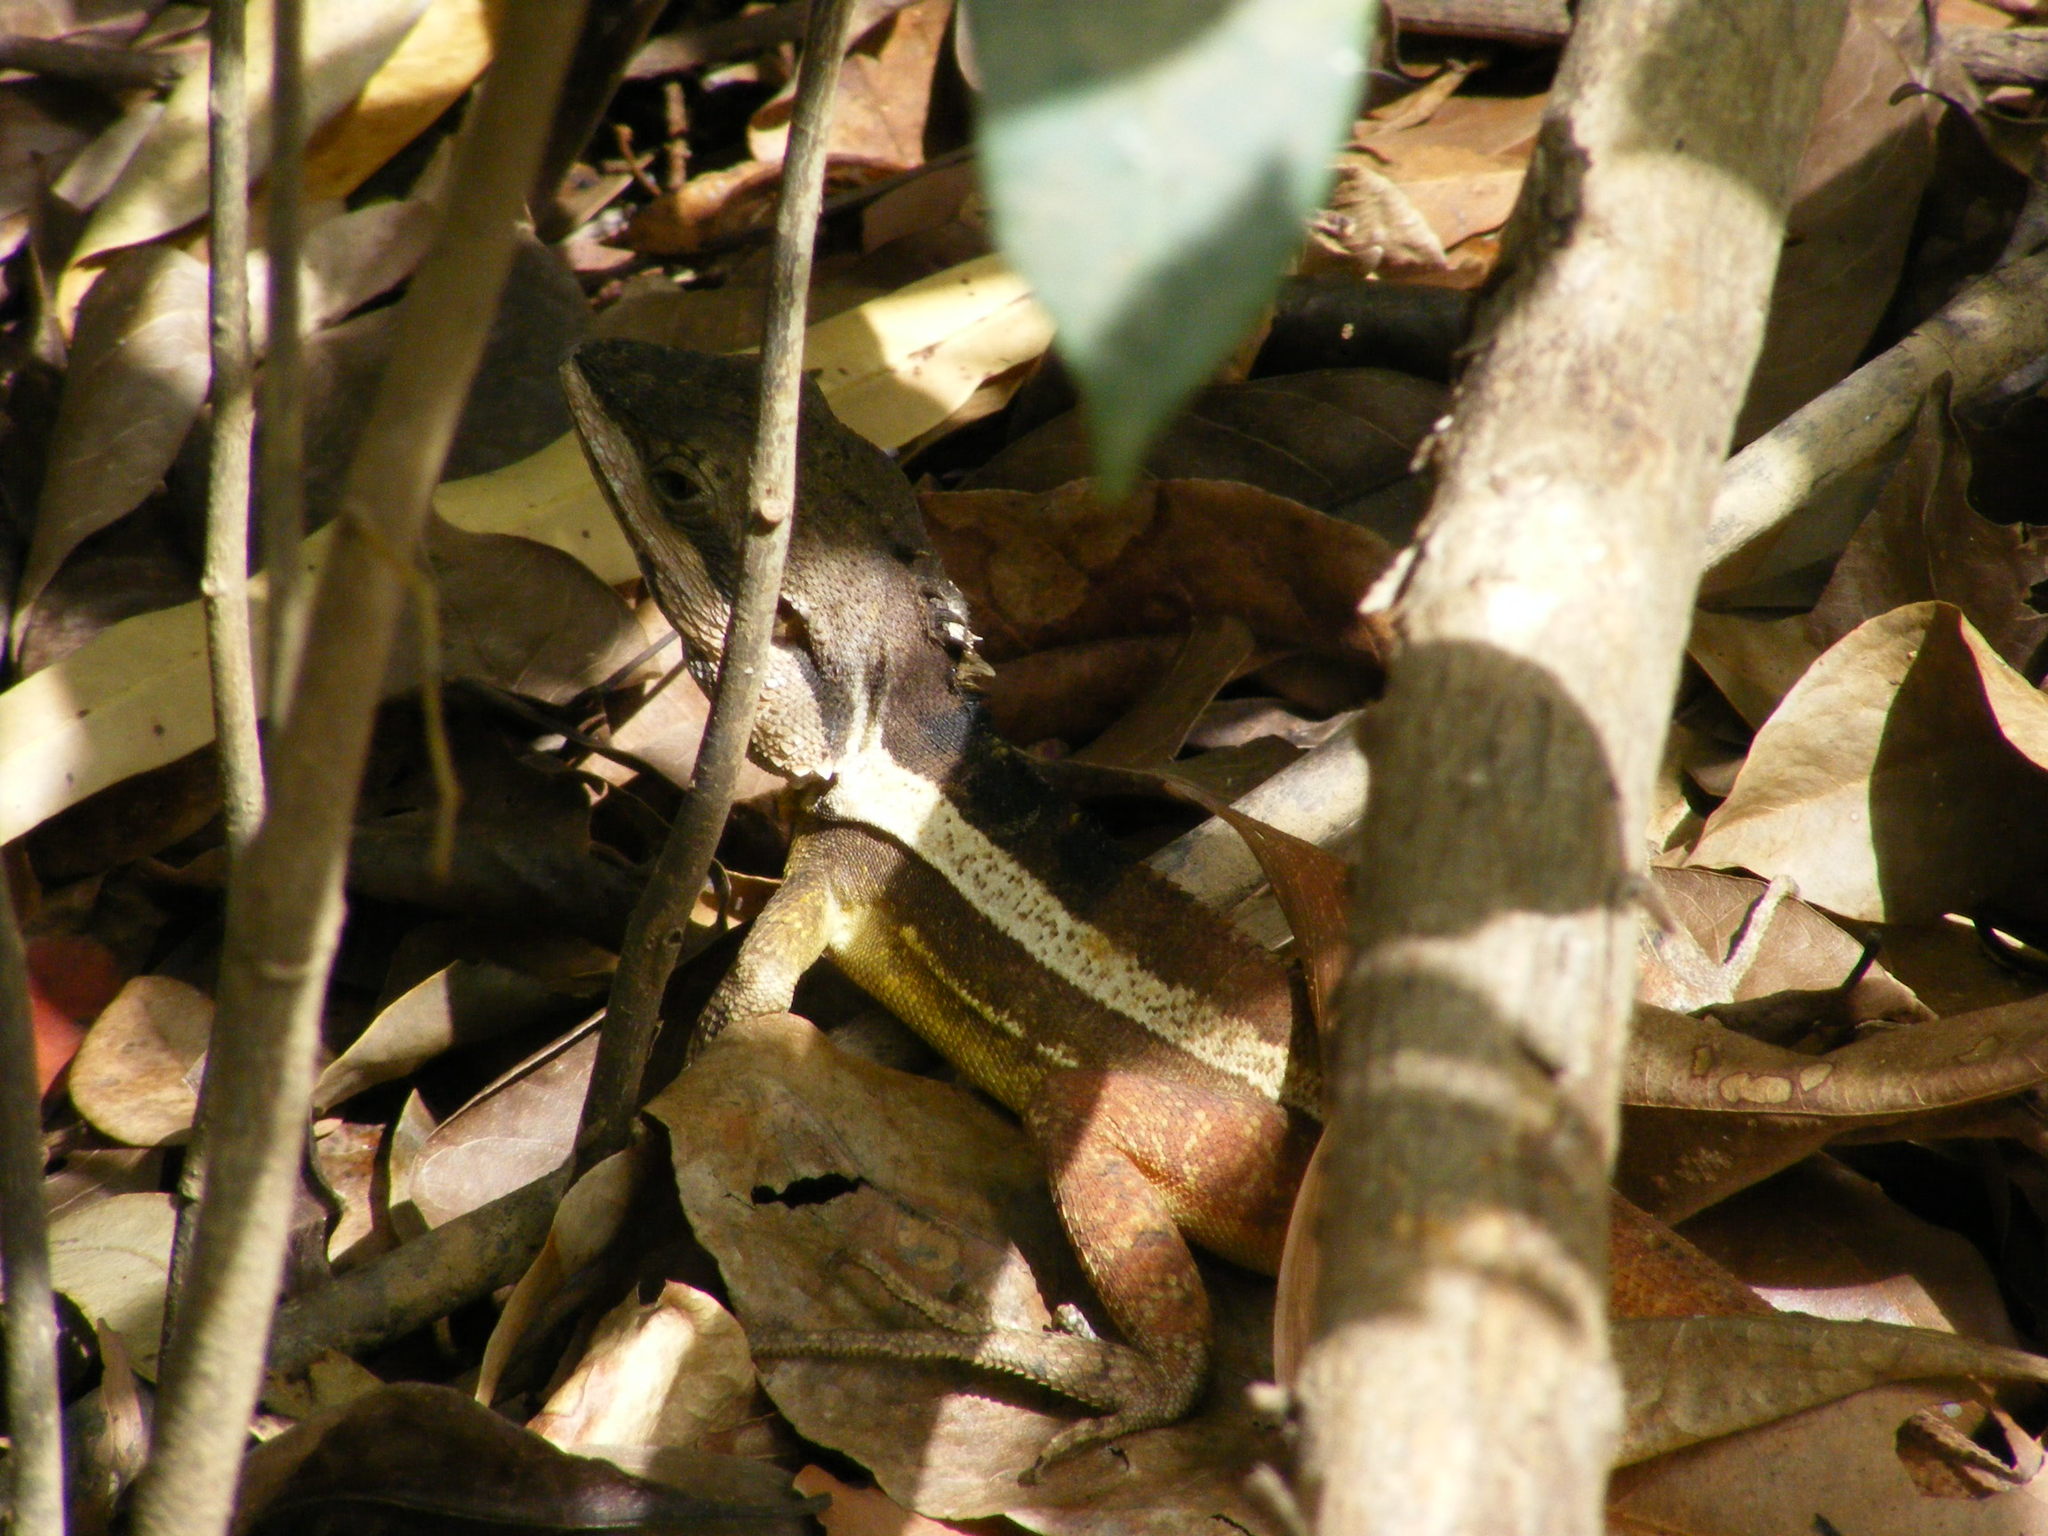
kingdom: Animalia
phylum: Chordata
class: Squamata
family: Agamidae
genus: Tropicagama
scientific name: Tropicagama temporalis
